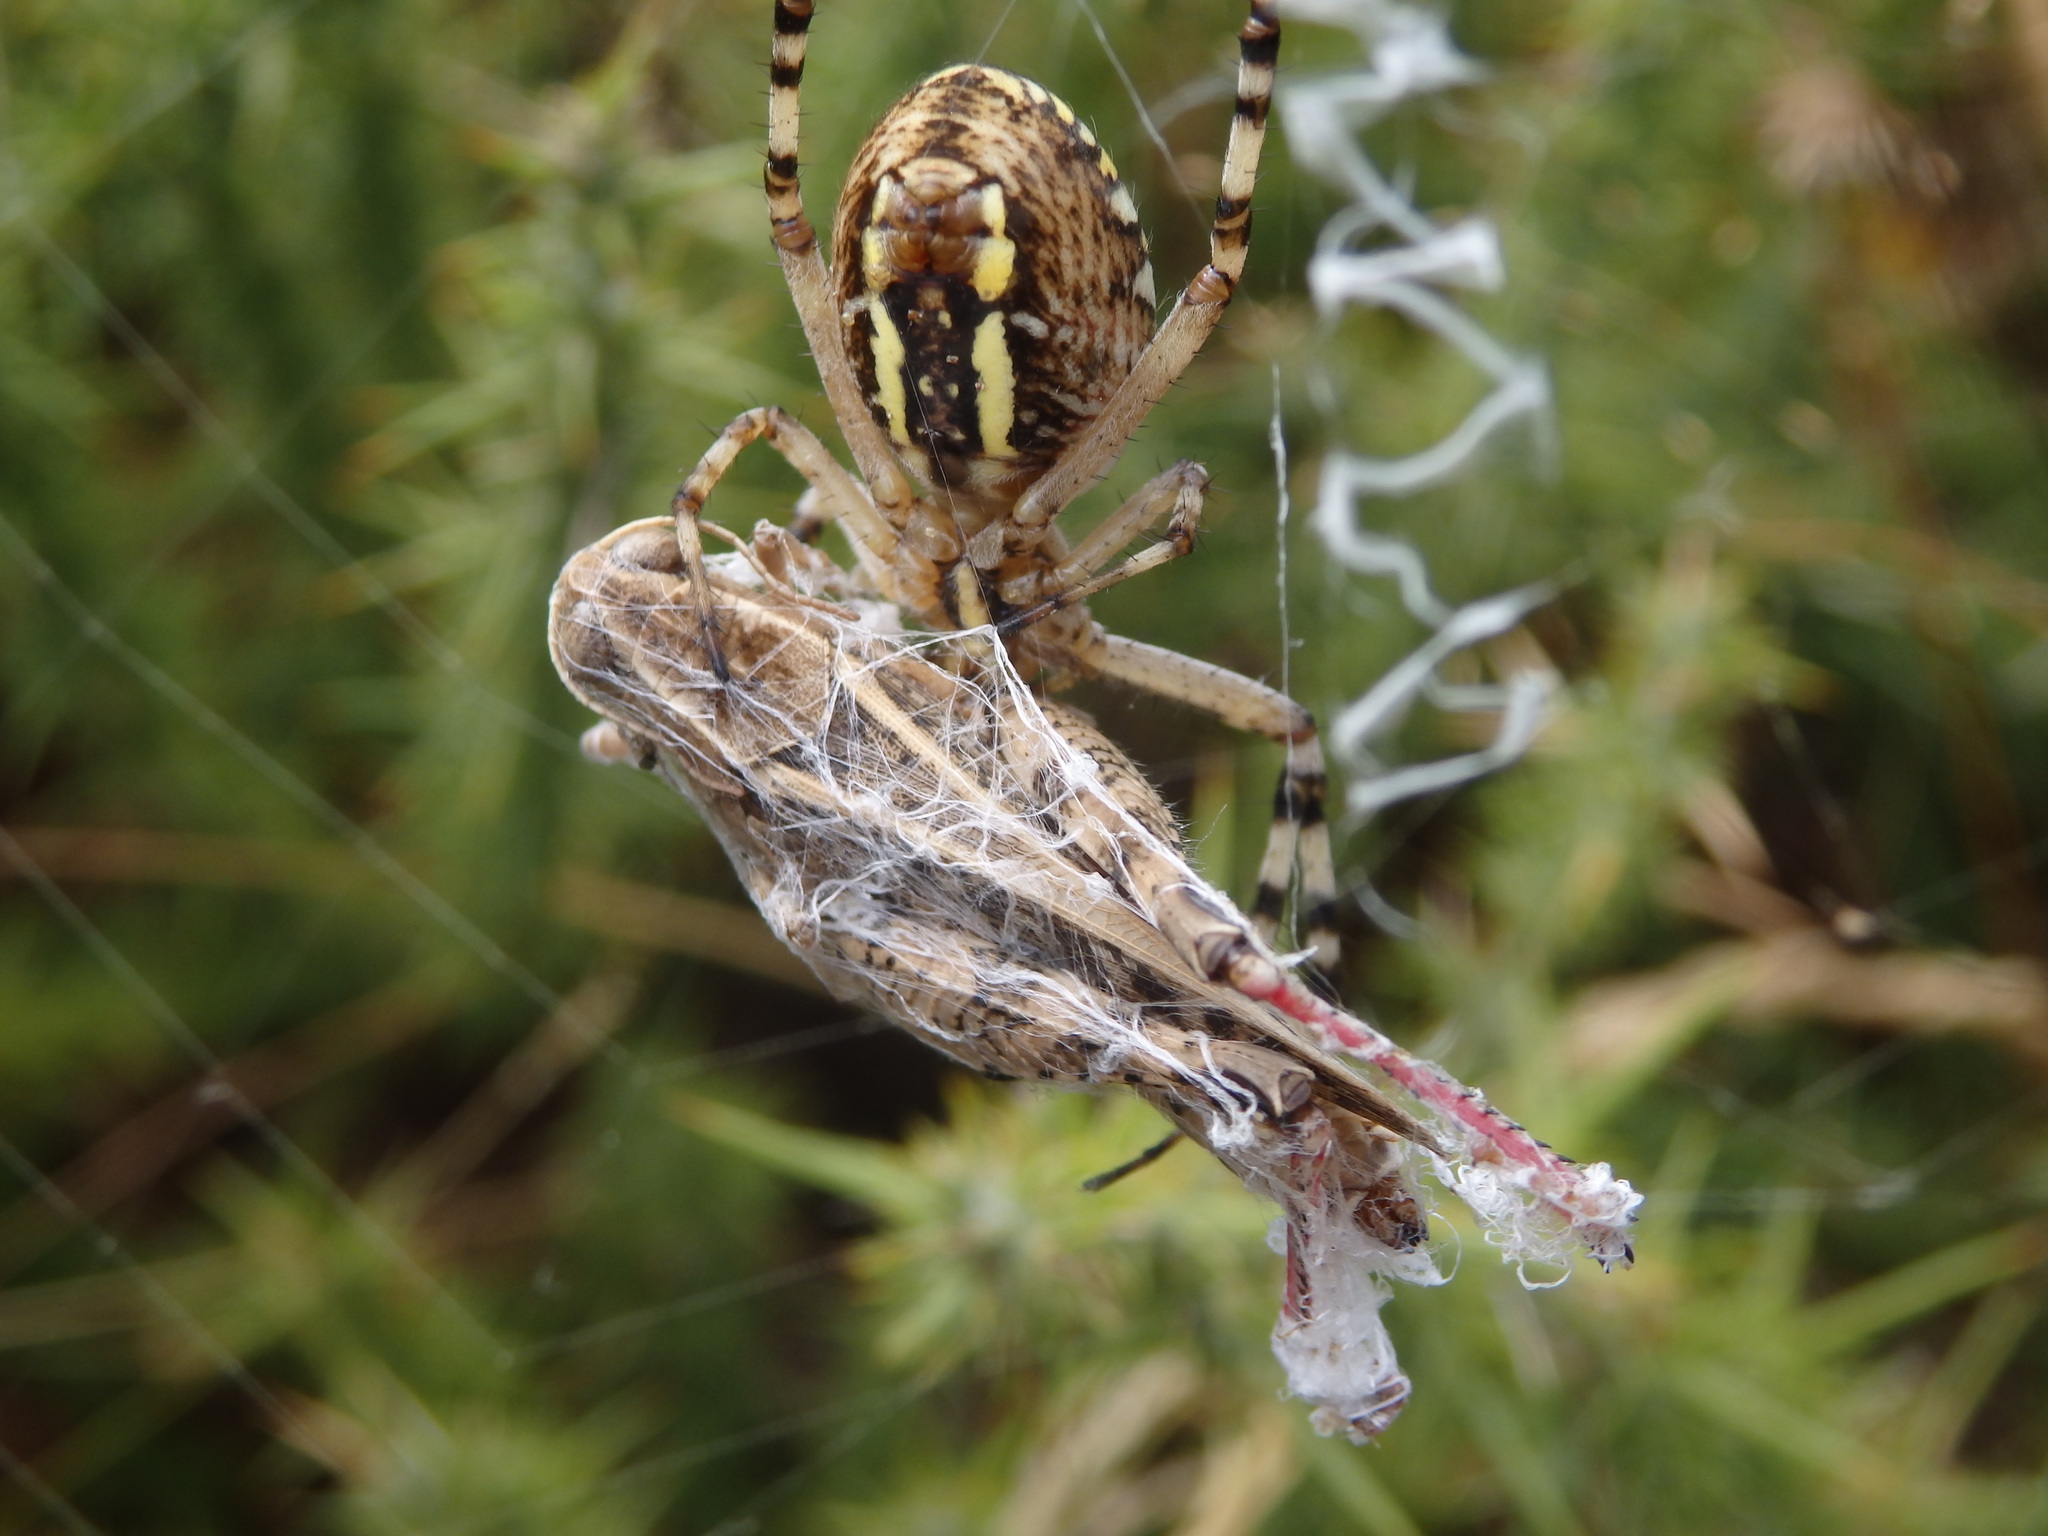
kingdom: Animalia
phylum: Arthropoda
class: Arachnida
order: Araneae
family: Araneidae
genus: Argiope
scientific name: Argiope bruennichi
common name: Wasp spider
